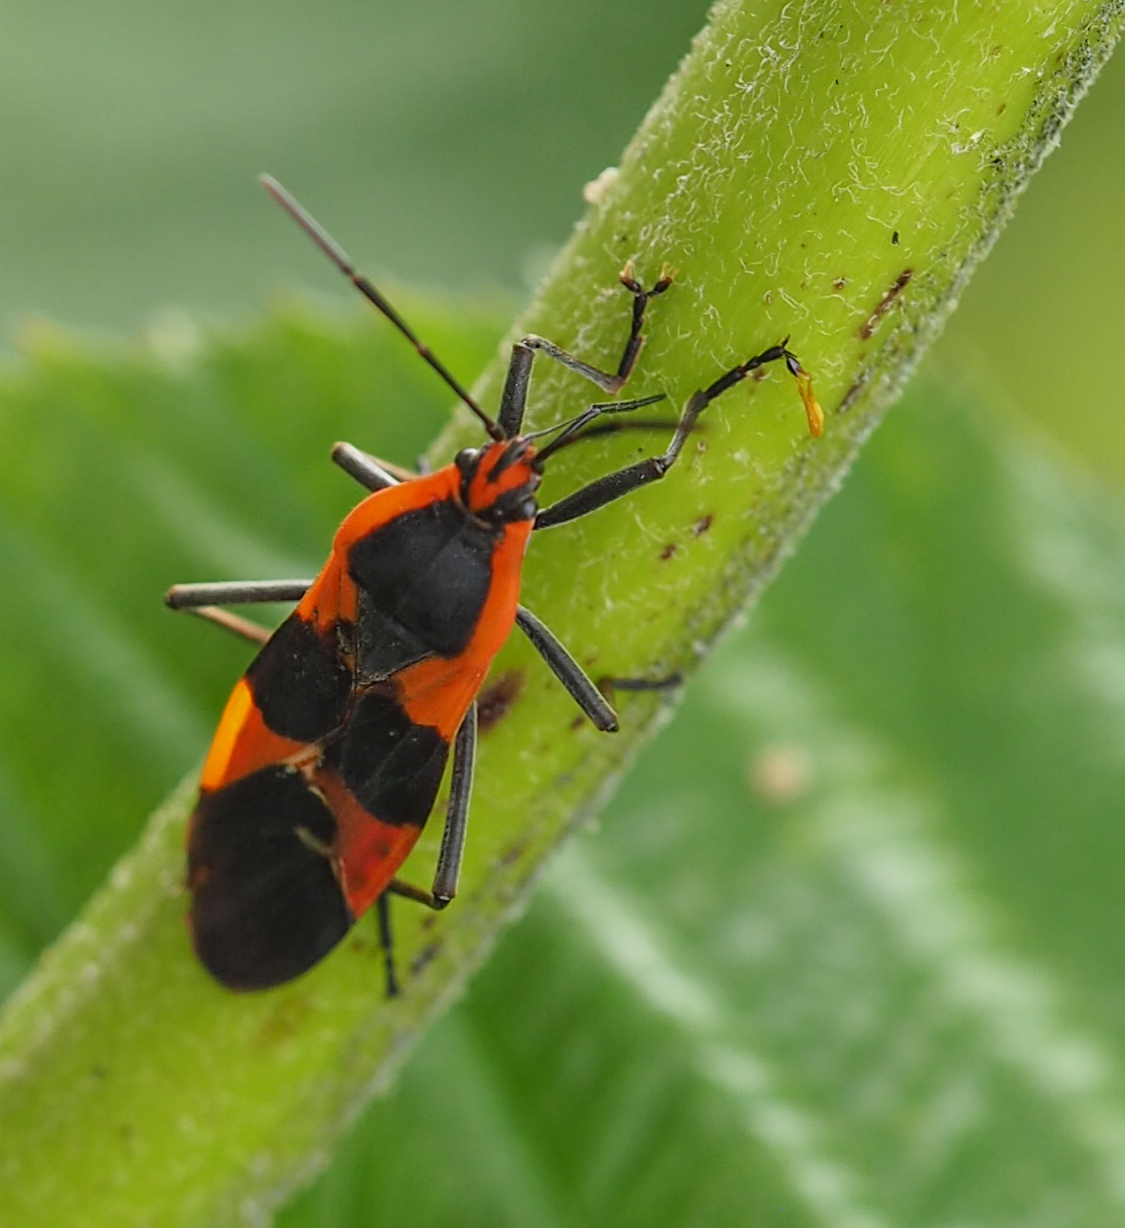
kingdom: Animalia
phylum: Arthropoda
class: Insecta
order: Hemiptera
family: Lygaeidae
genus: Oncopeltus
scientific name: Oncopeltus fasciatus
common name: Large milkweed bug
